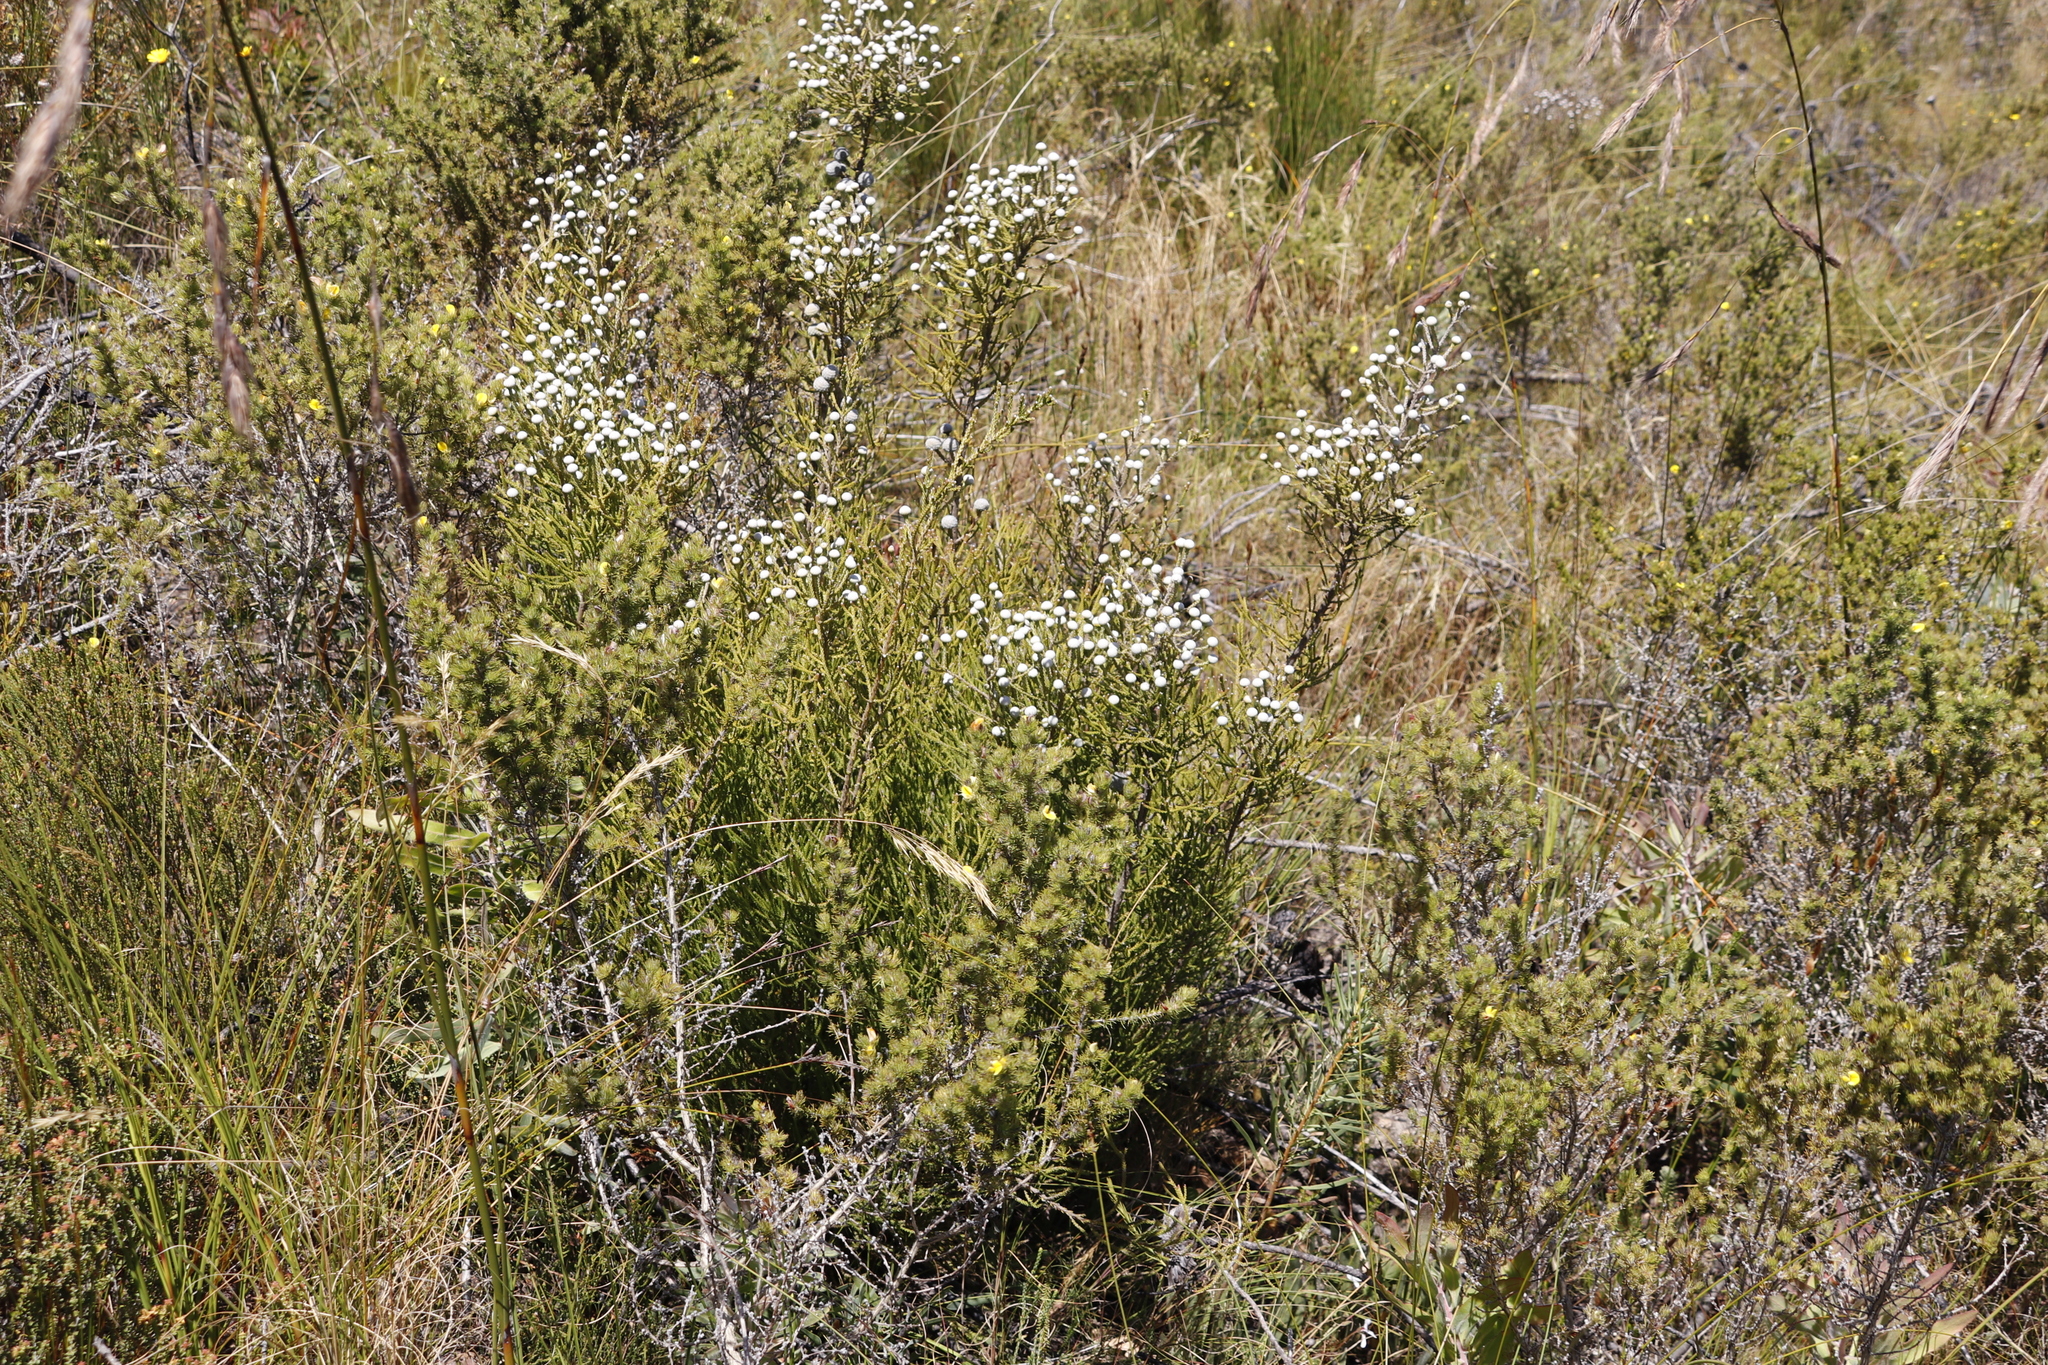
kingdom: Plantae
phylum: Tracheophyta
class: Magnoliopsida
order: Bruniales
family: Bruniaceae
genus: Brunia
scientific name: Brunia noduliflora
